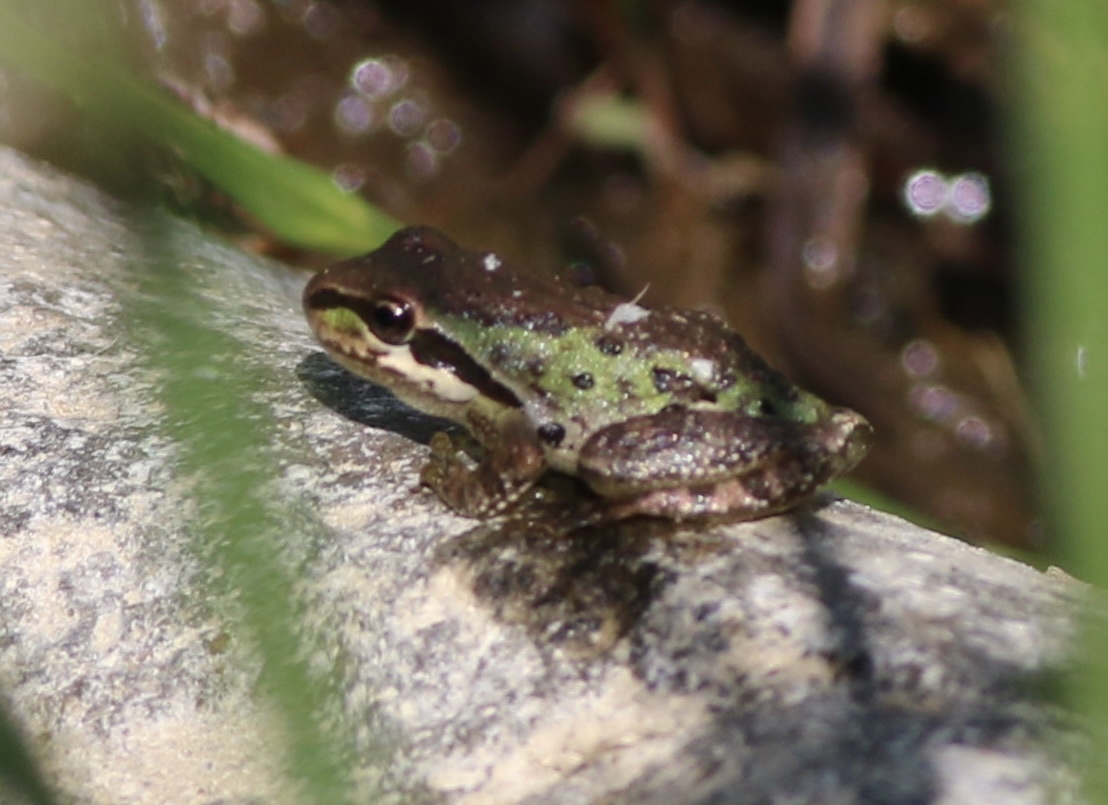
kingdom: Animalia
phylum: Chordata
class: Amphibia
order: Anura
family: Hylidae
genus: Pseudacris
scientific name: Pseudacris regilla
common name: Pacific chorus frog
